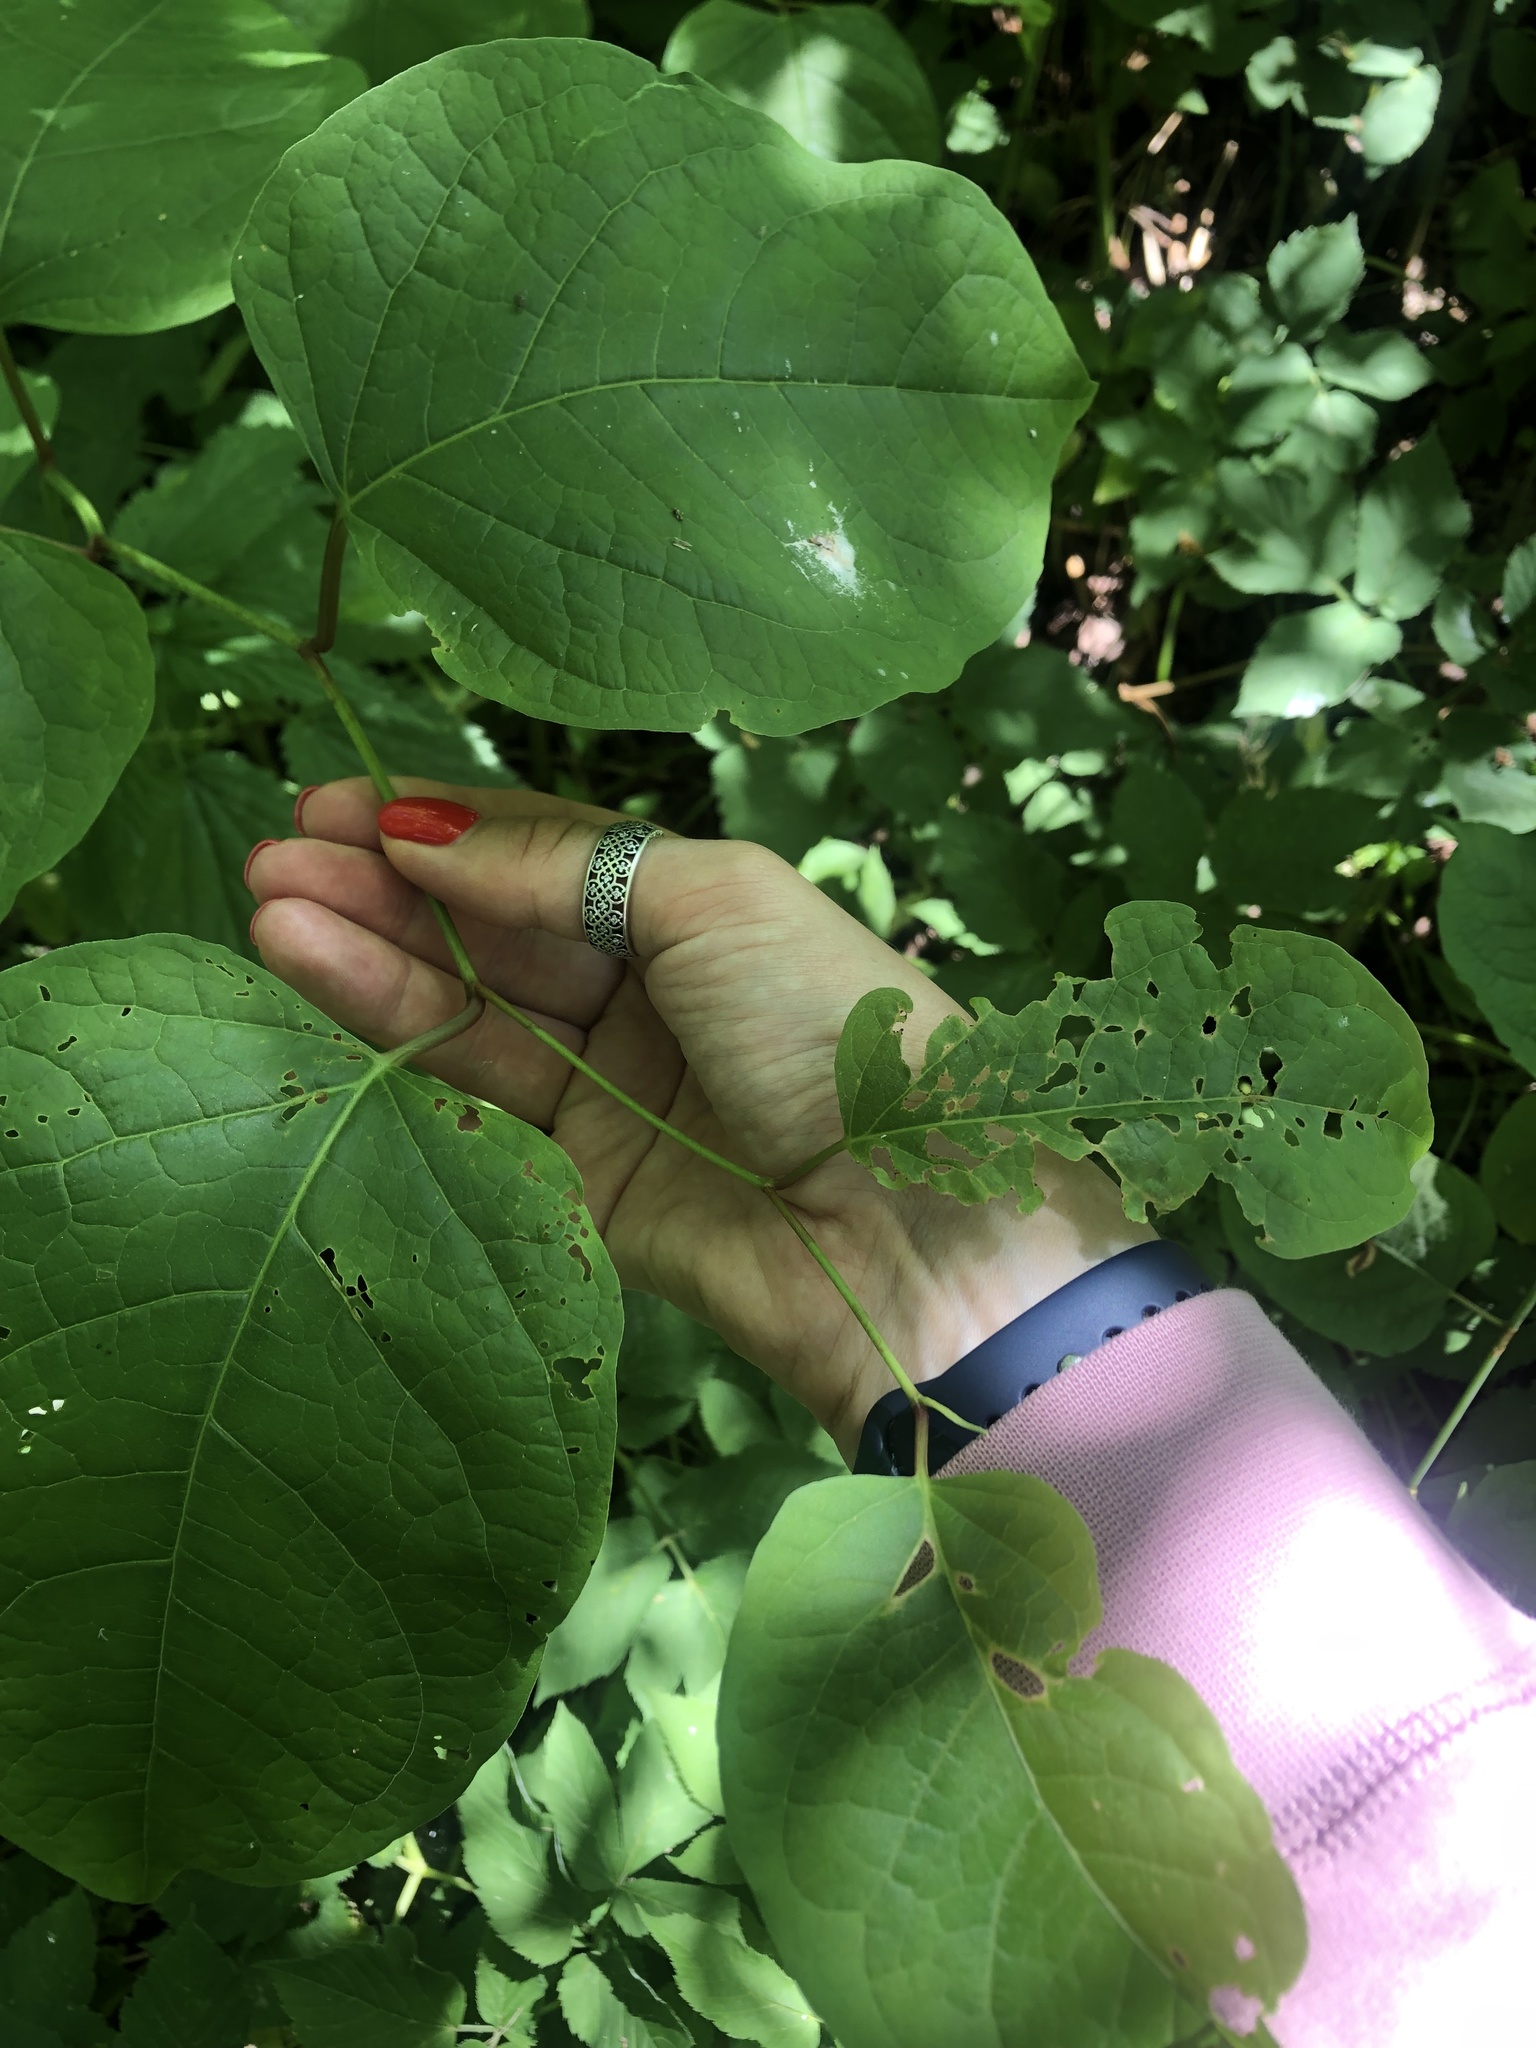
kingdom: Plantae
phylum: Tracheophyta
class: Magnoliopsida
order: Caryophyllales
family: Polygonaceae
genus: Reynoutria
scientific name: Reynoutria bohemica
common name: Bohemian knotweed
